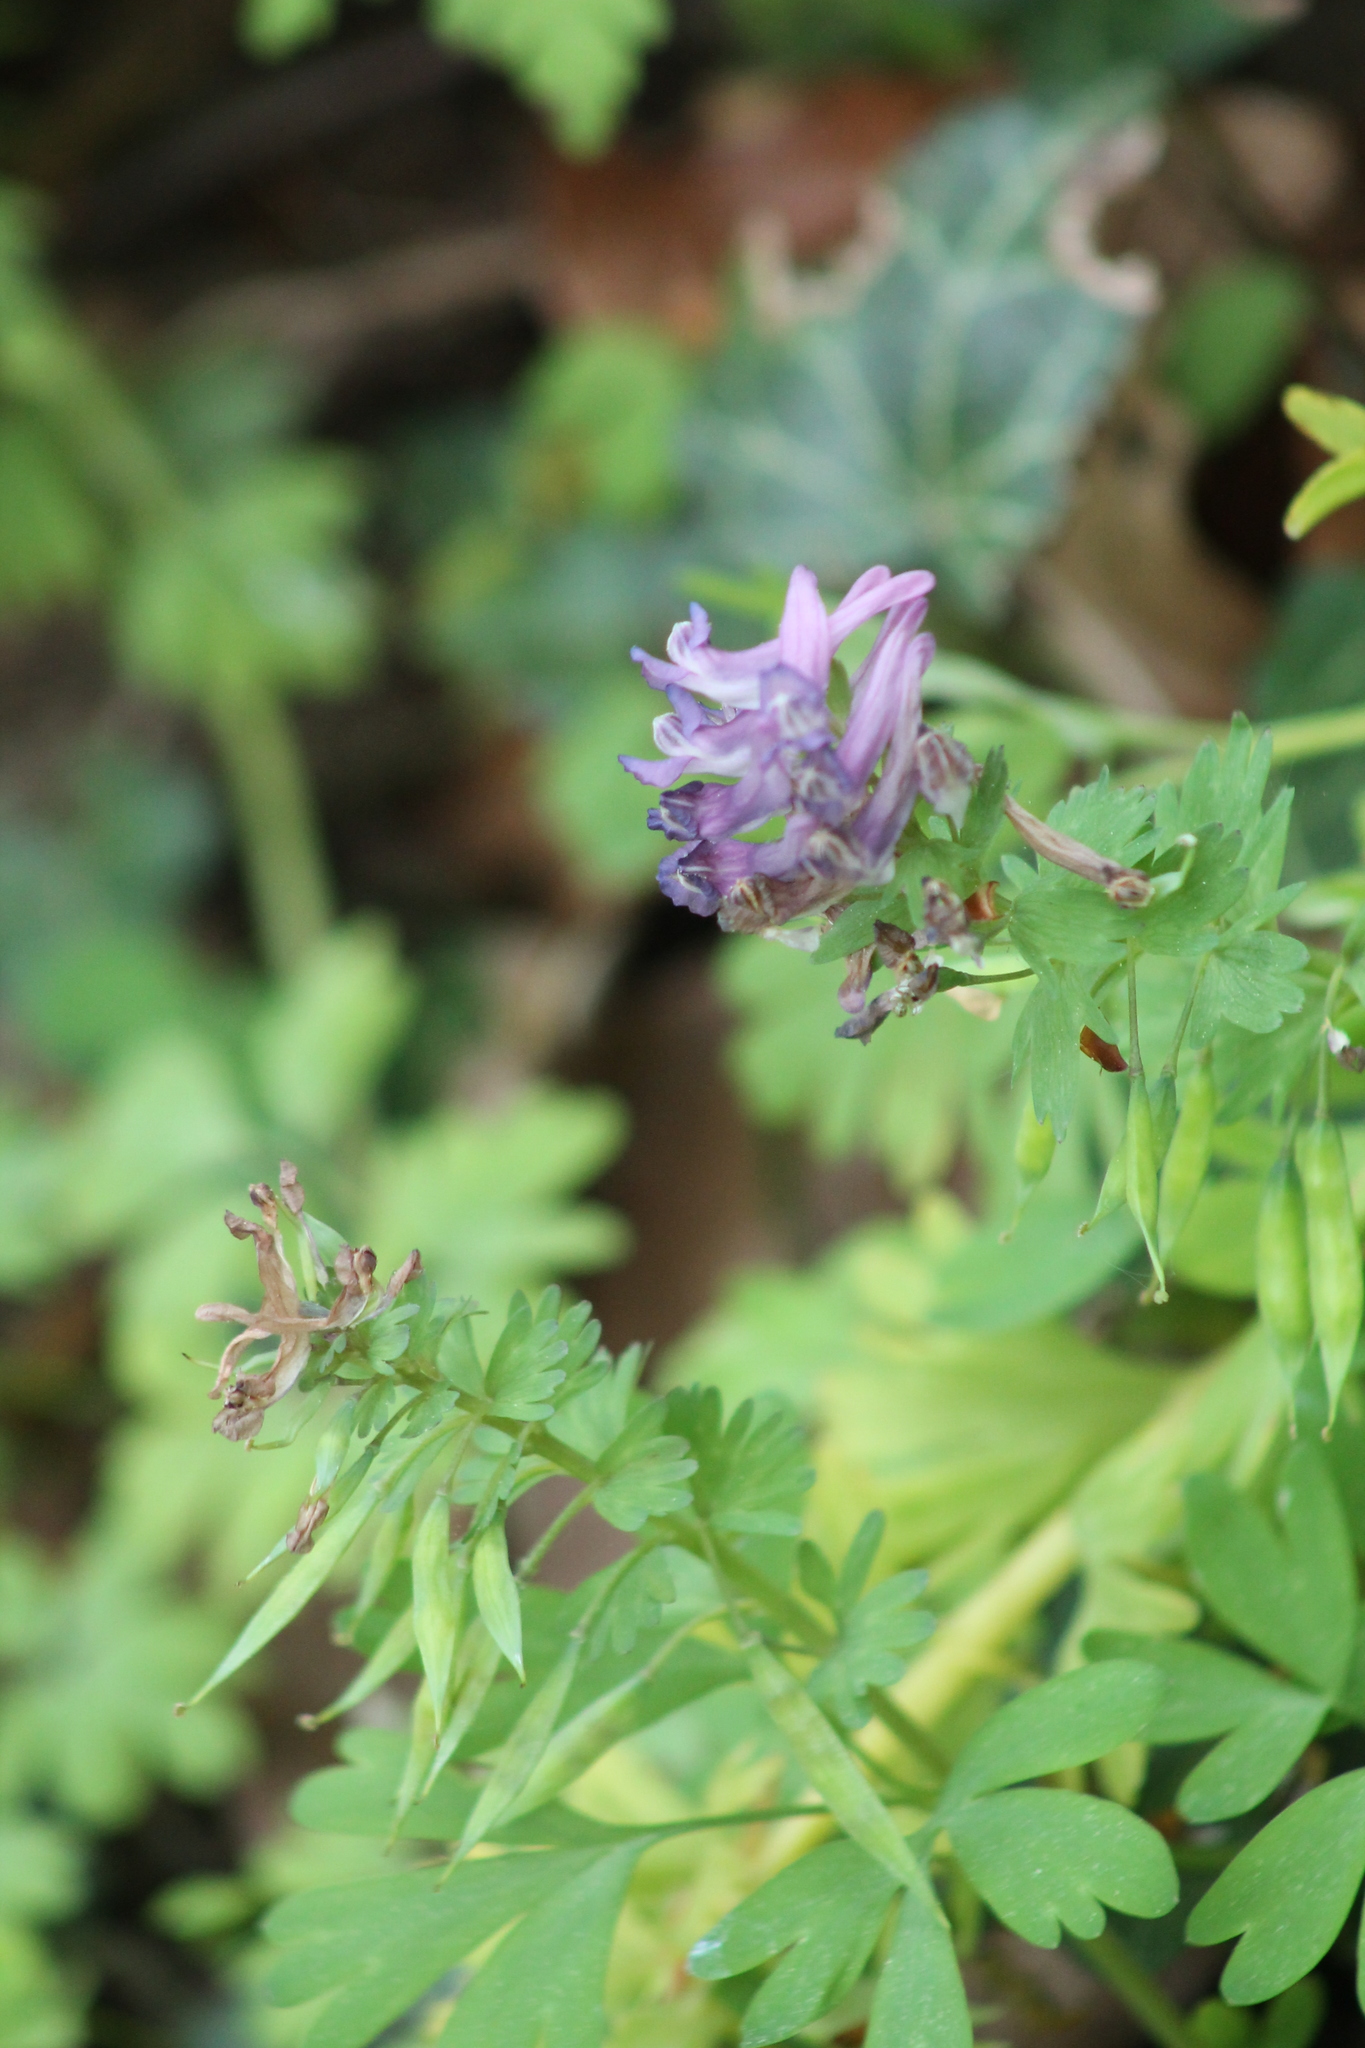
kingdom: Plantae
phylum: Tracheophyta
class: Magnoliopsida
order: Ranunculales
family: Papaveraceae
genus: Corydalis
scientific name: Corydalis solida
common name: Bird-in-a-bush
